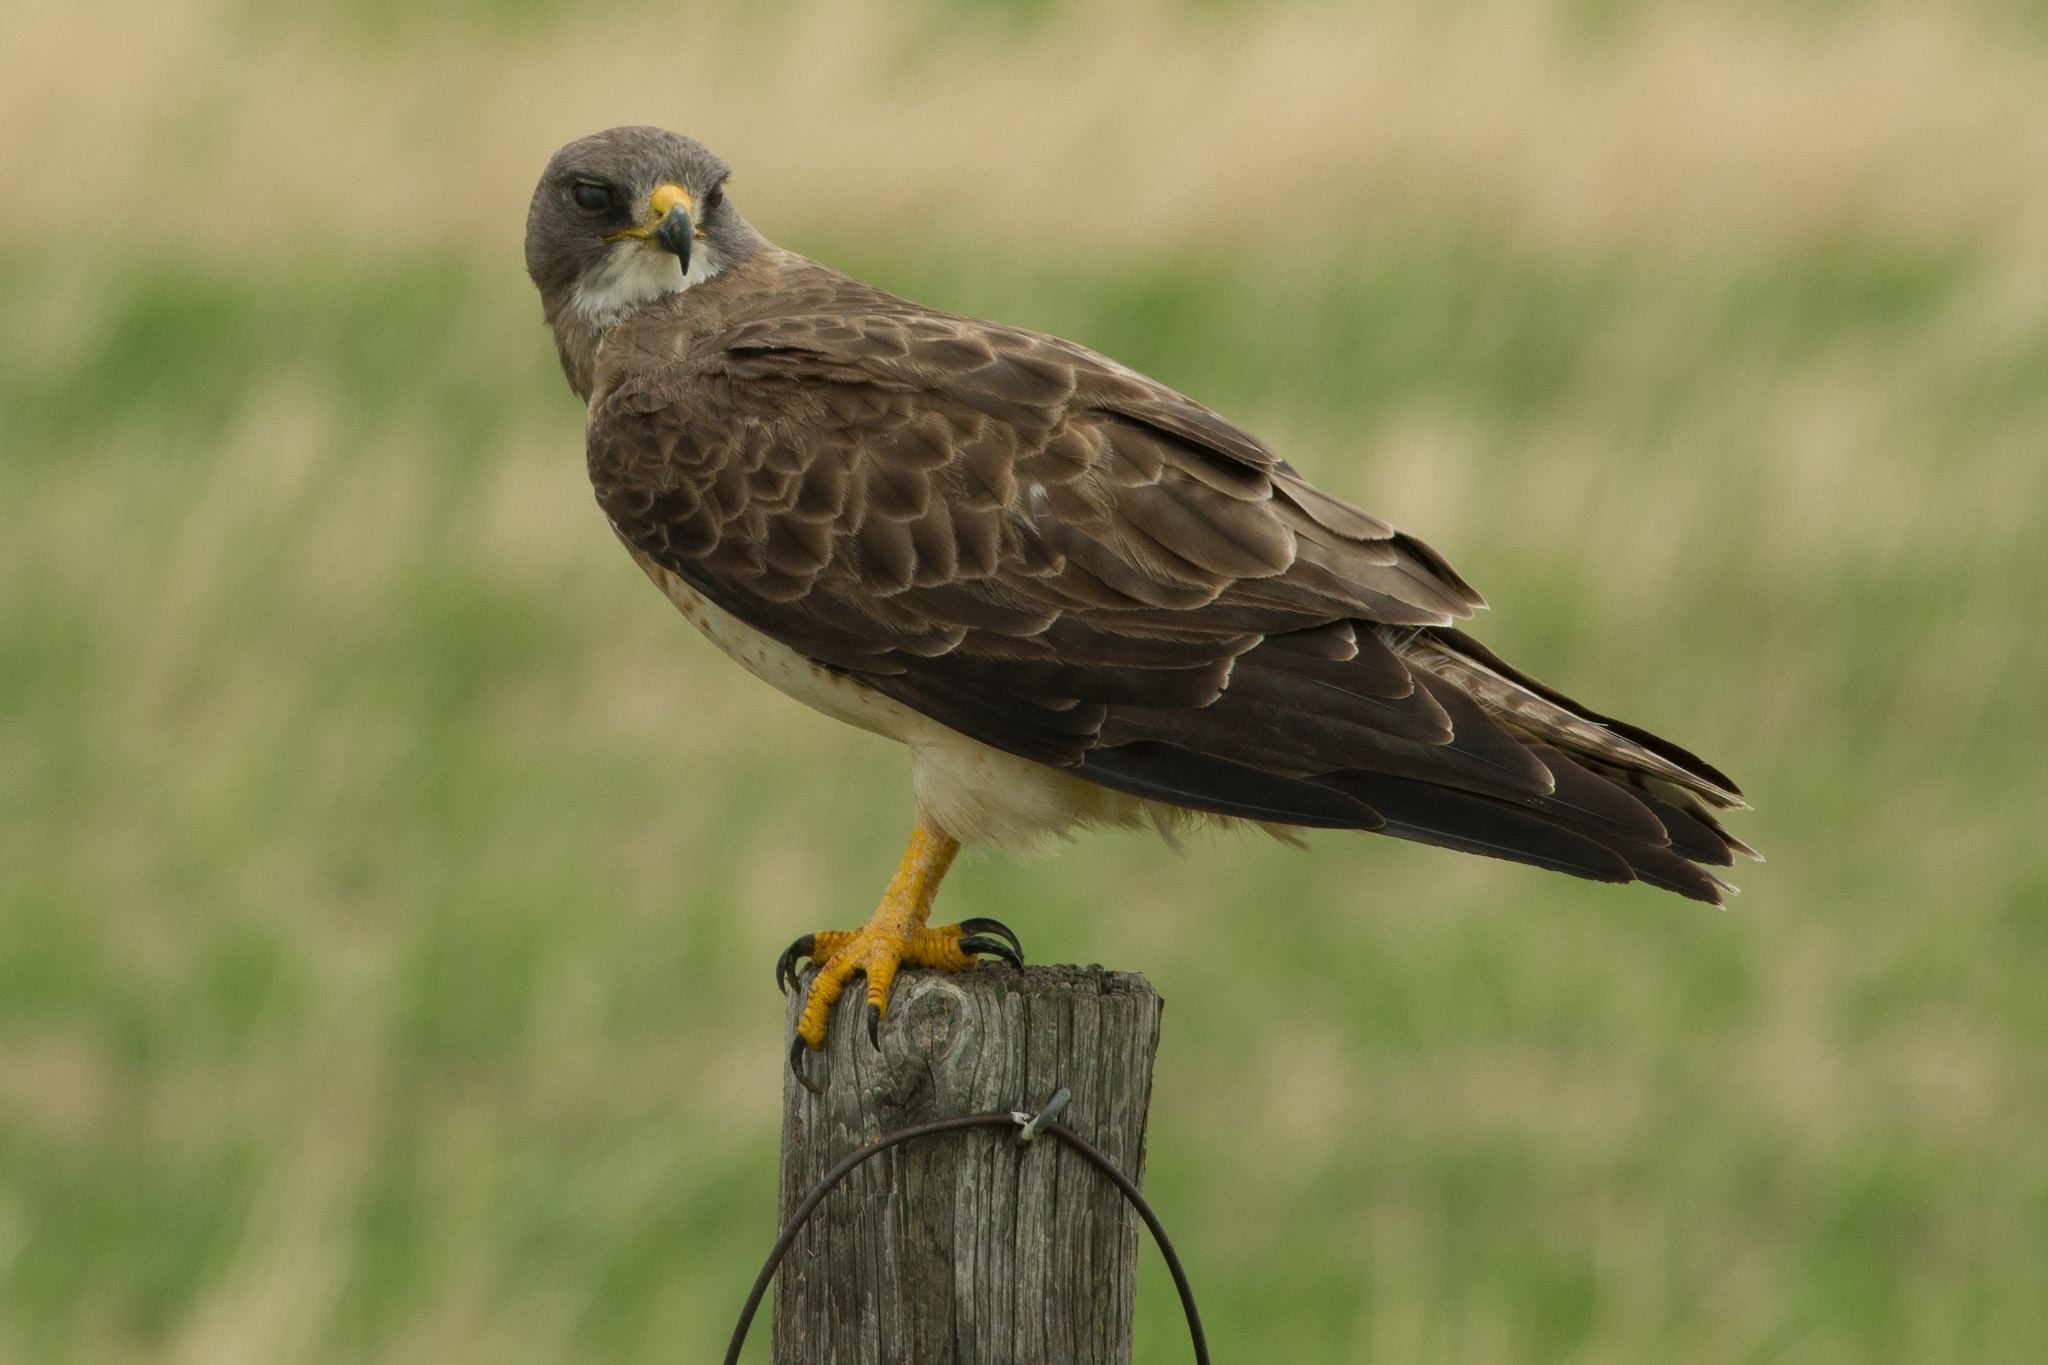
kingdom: Animalia
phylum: Chordata
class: Aves
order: Accipitriformes
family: Accipitridae
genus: Buteo
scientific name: Buteo swainsoni
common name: Swainson's hawk
